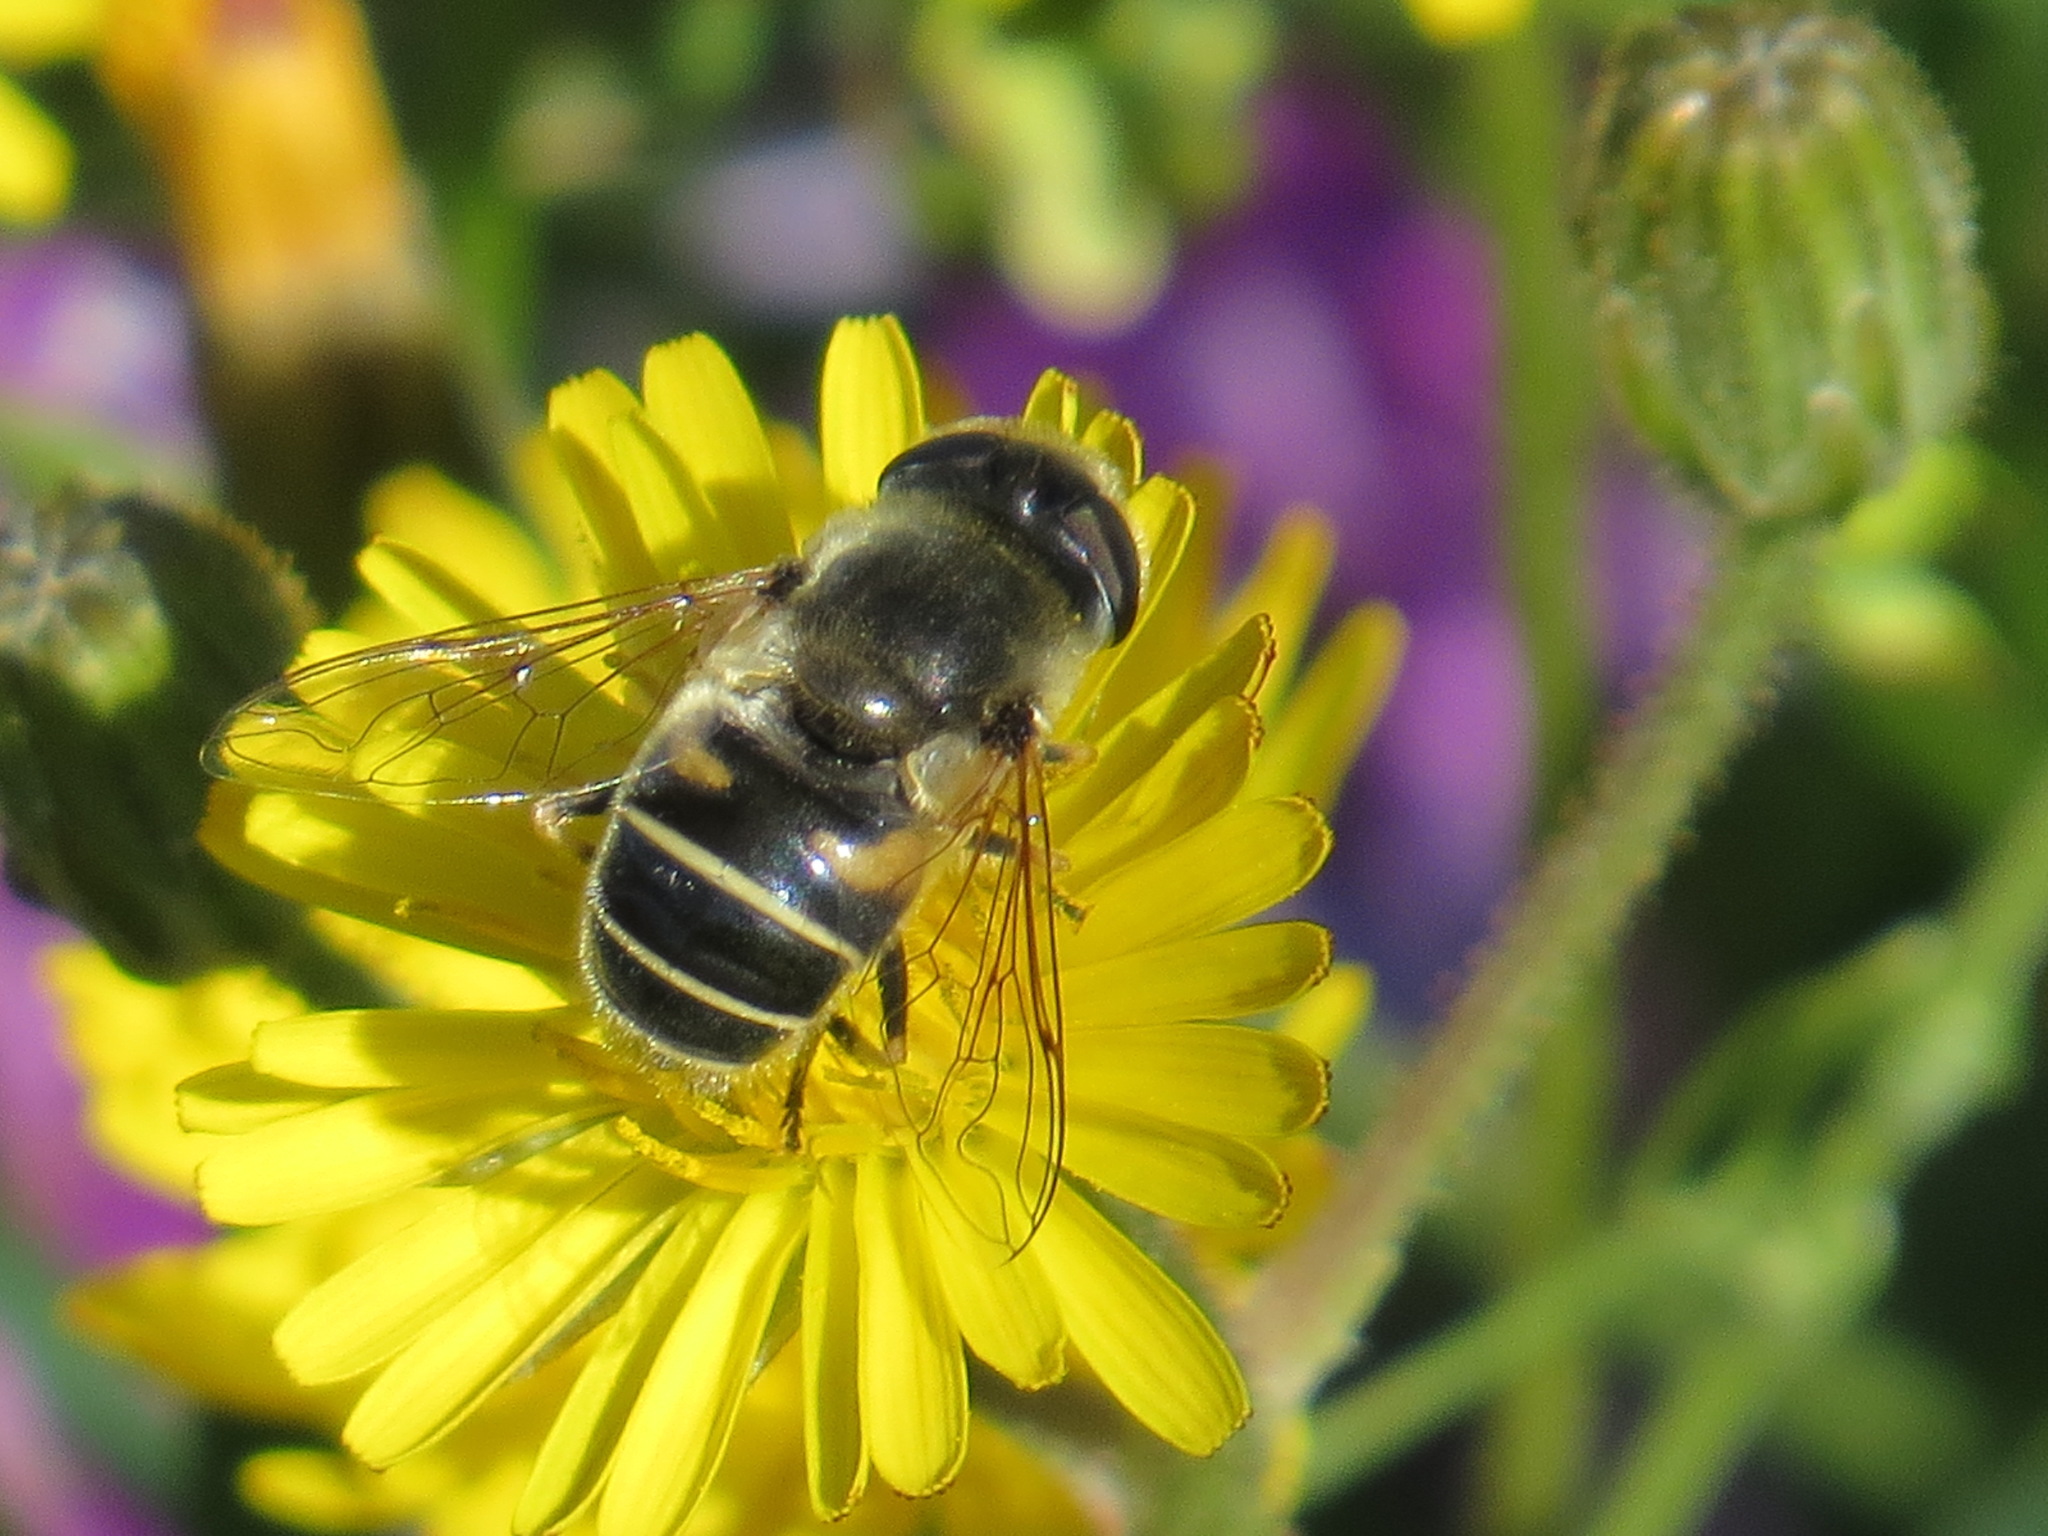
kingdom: Animalia
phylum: Arthropoda
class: Insecta
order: Diptera
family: Syrphidae
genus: Eristalis
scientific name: Eristalis hirta
